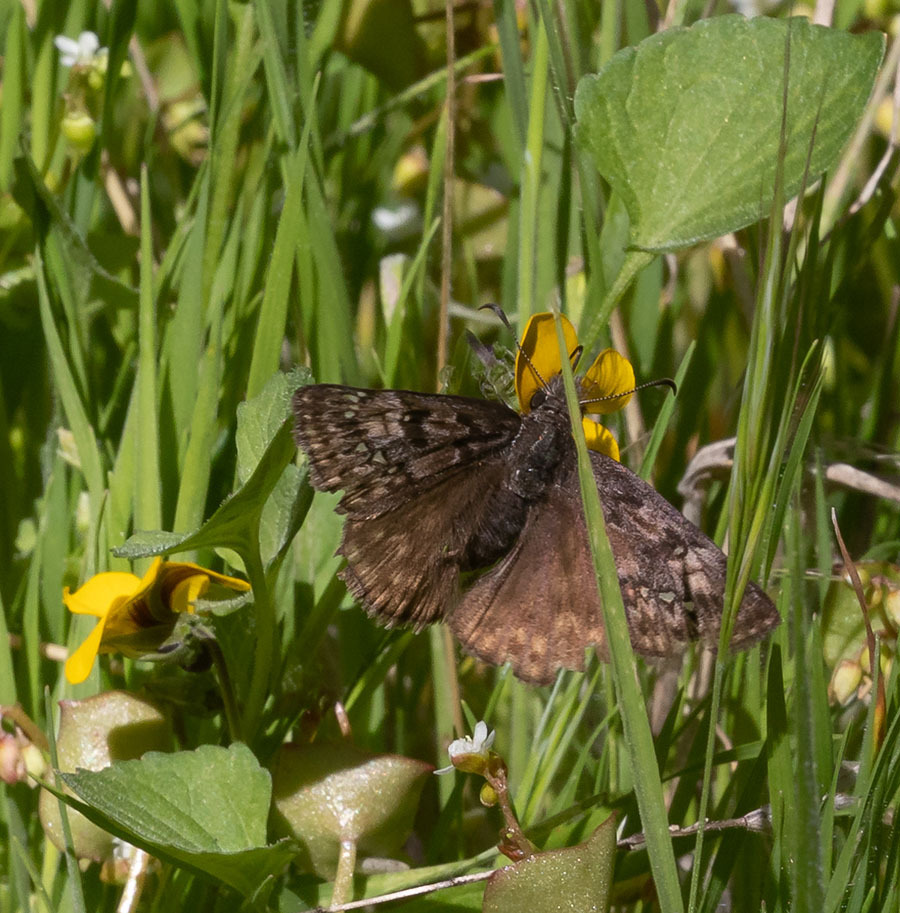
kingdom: Animalia
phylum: Arthropoda
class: Insecta
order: Lepidoptera
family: Hesperiidae
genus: Erynnis
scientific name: Erynnis propertius
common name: Propertius duskywing
